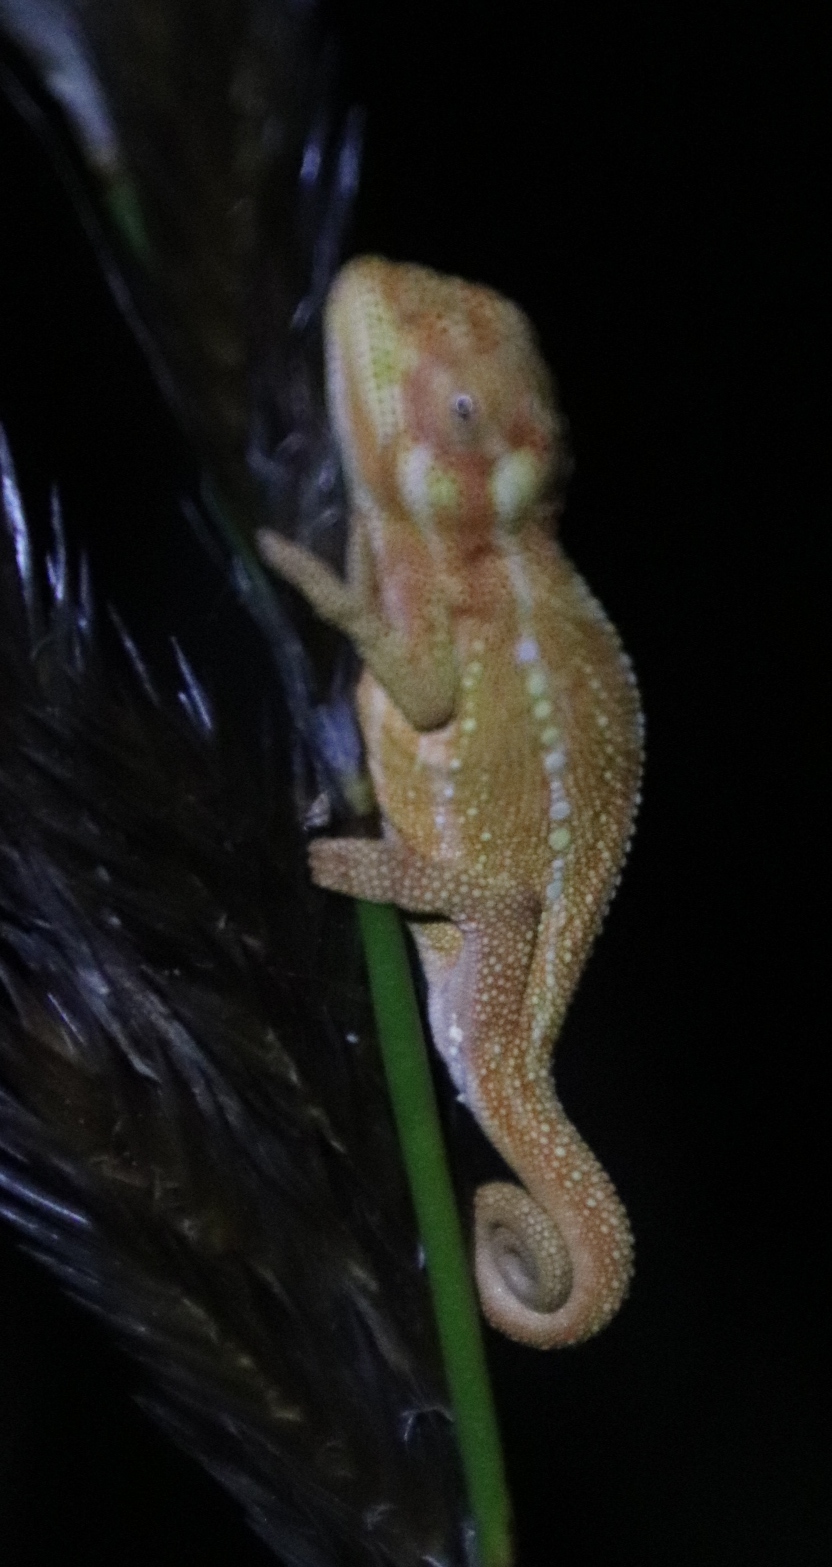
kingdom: Animalia
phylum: Chordata
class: Squamata
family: Chamaeleonidae
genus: Bradypodion
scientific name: Bradypodion pumilum
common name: Cape dwarf chameleon
